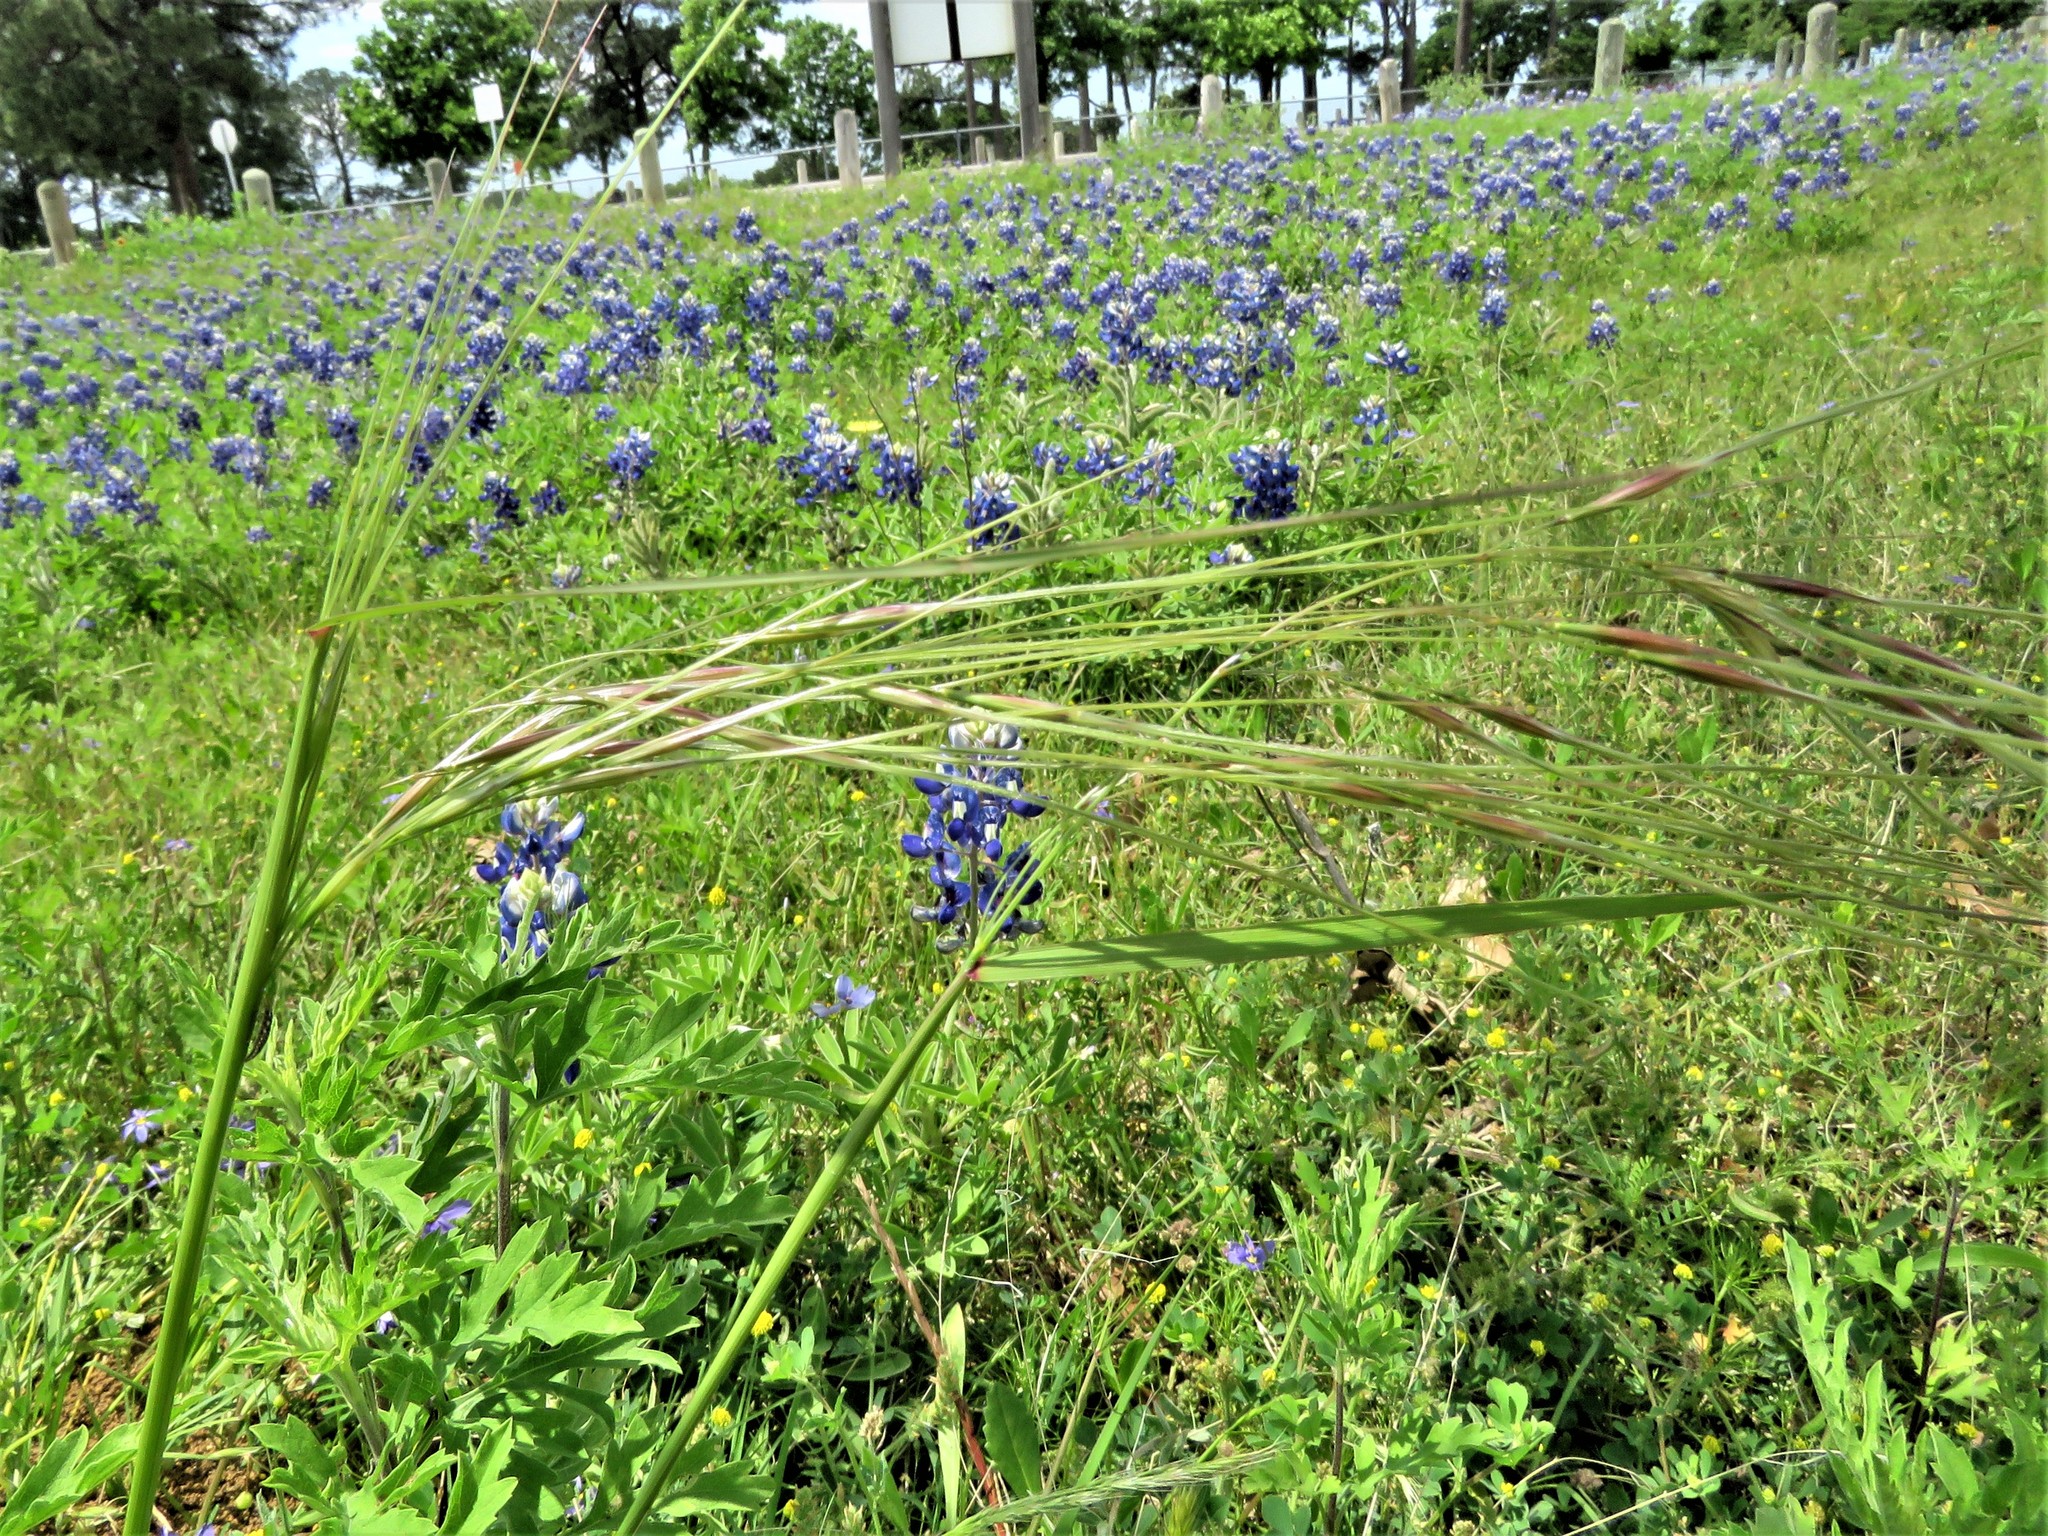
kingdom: Plantae
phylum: Tracheophyta
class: Liliopsida
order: Poales
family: Poaceae
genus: Nassella
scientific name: Nassella leucotricha
